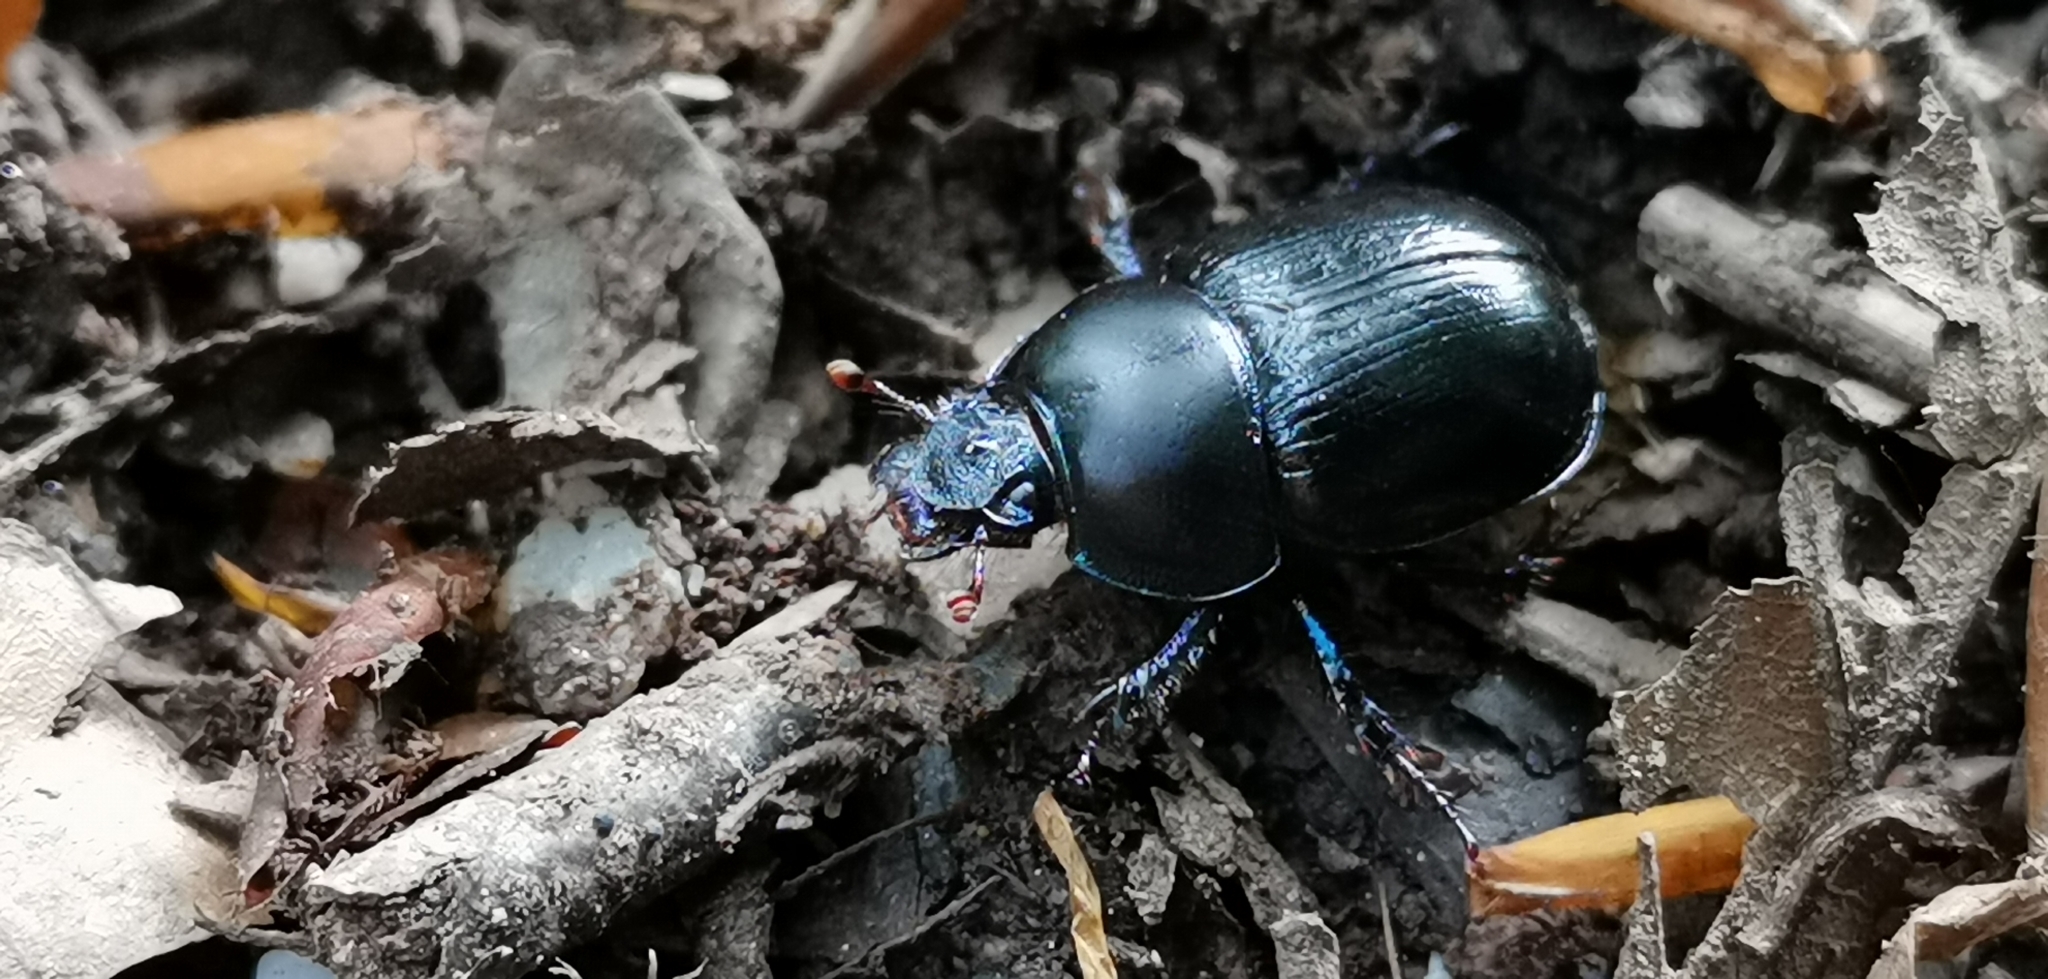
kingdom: Animalia
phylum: Arthropoda
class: Insecta
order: Coleoptera
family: Geotrupidae
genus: Anoplotrupes
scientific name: Anoplotrupes stercorosus
